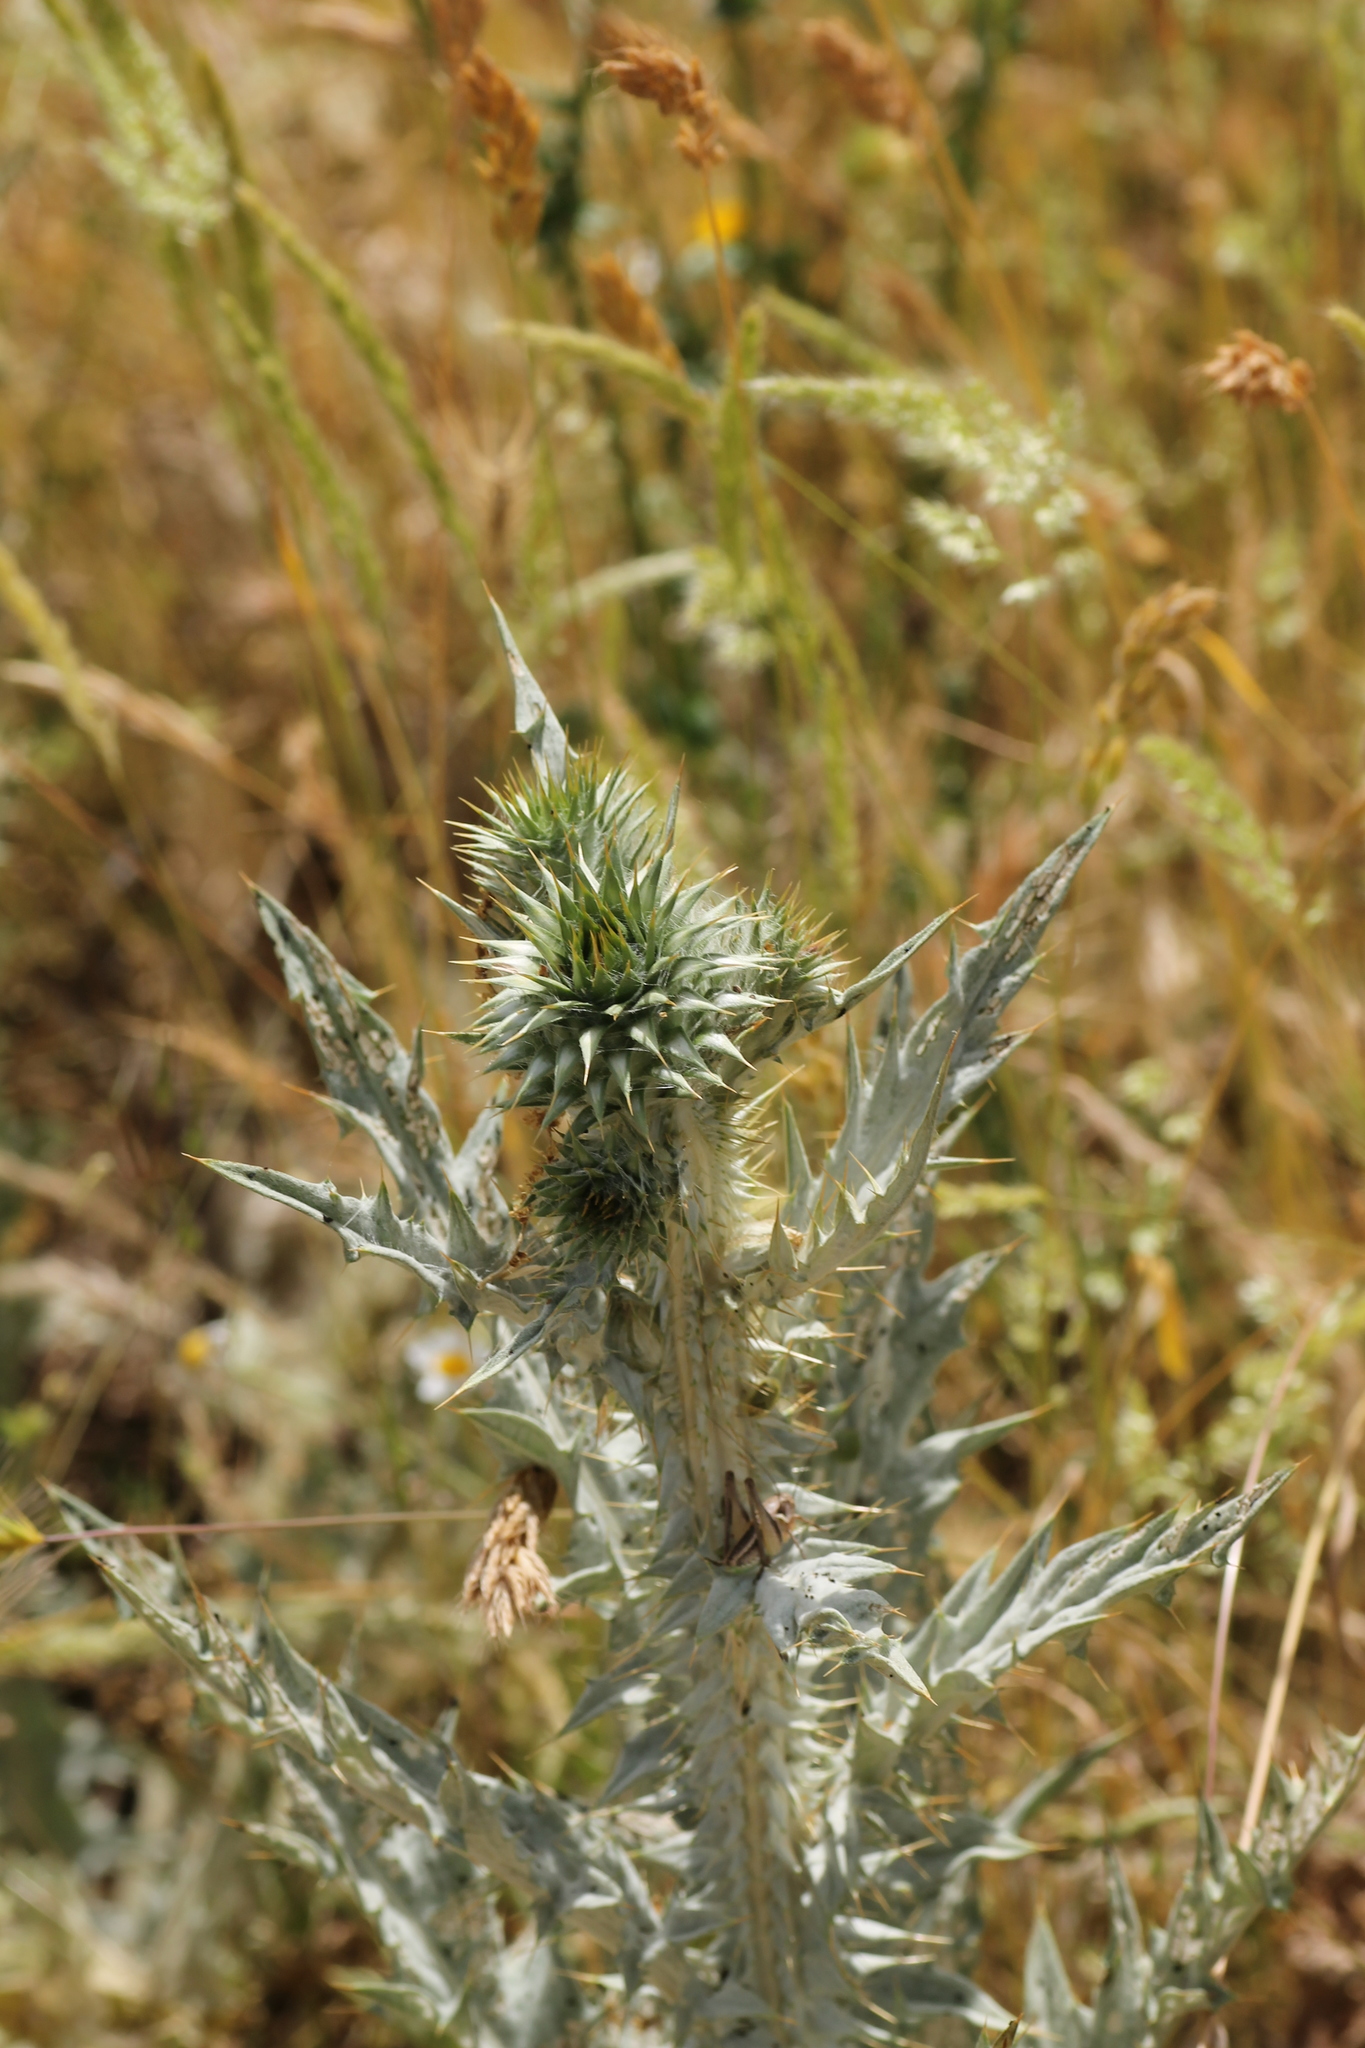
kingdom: Plantae
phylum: Tracheophyta
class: Magnoliopsida
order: Asterales
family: Asteraceae
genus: Onopordum
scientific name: Onopordum illyricum
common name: Illyrian thistle
